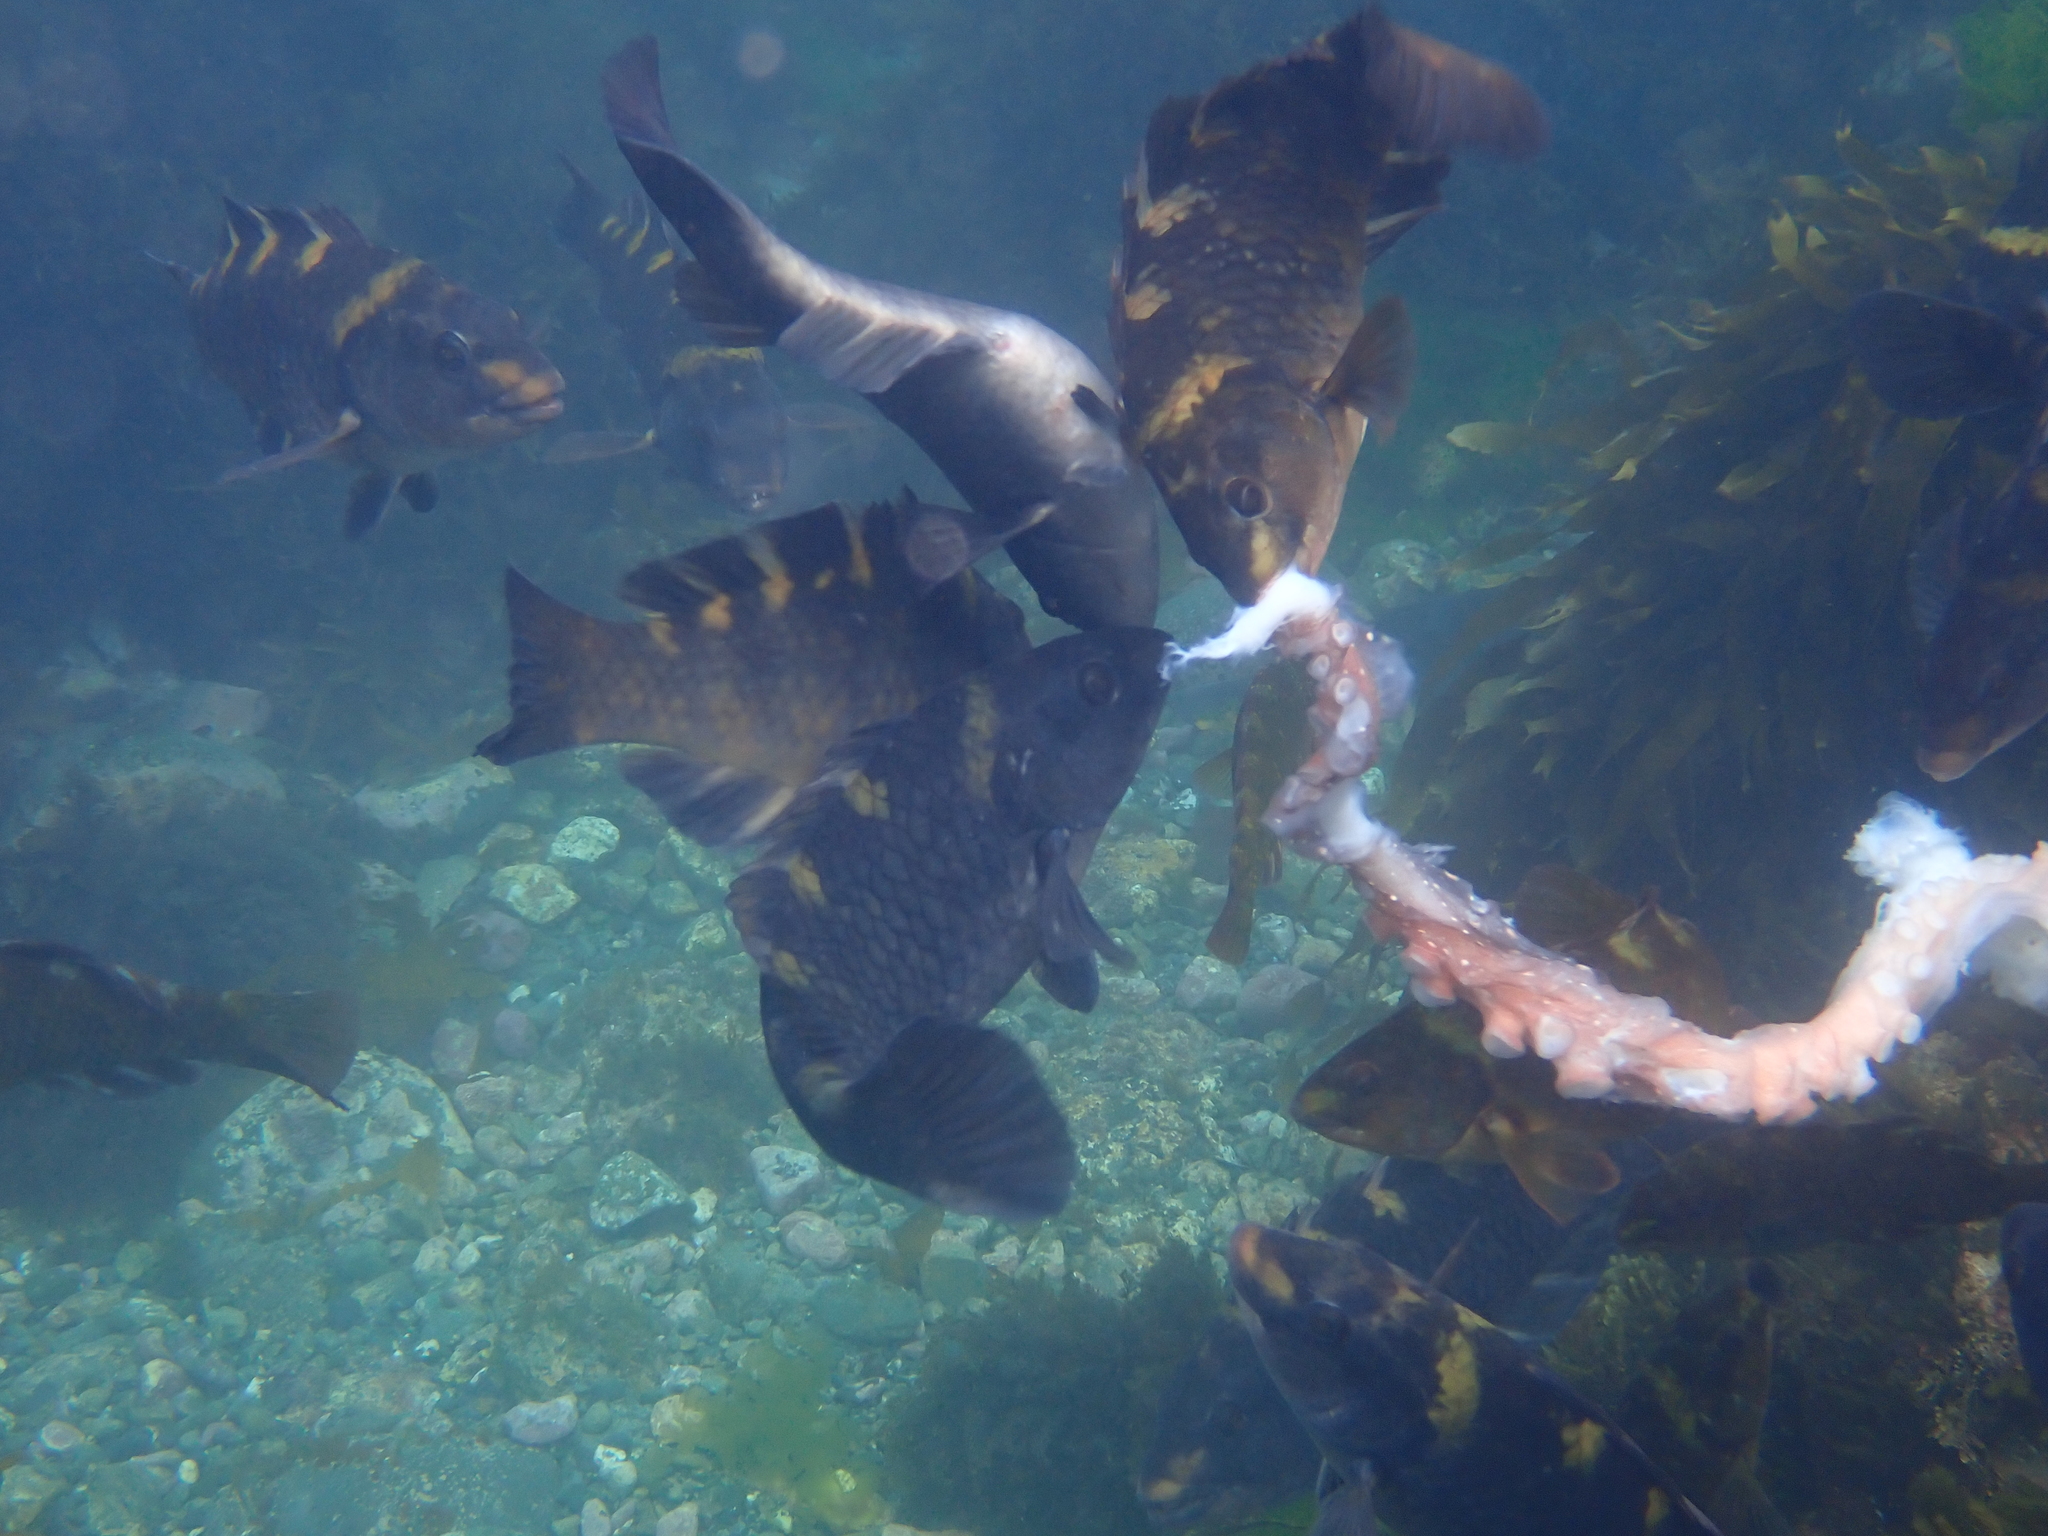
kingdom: Animalia
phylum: Chordata
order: Perciformes
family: Labridae
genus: Notolabrus
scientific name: Notolabrus fucicola
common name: Banded parrotfish
